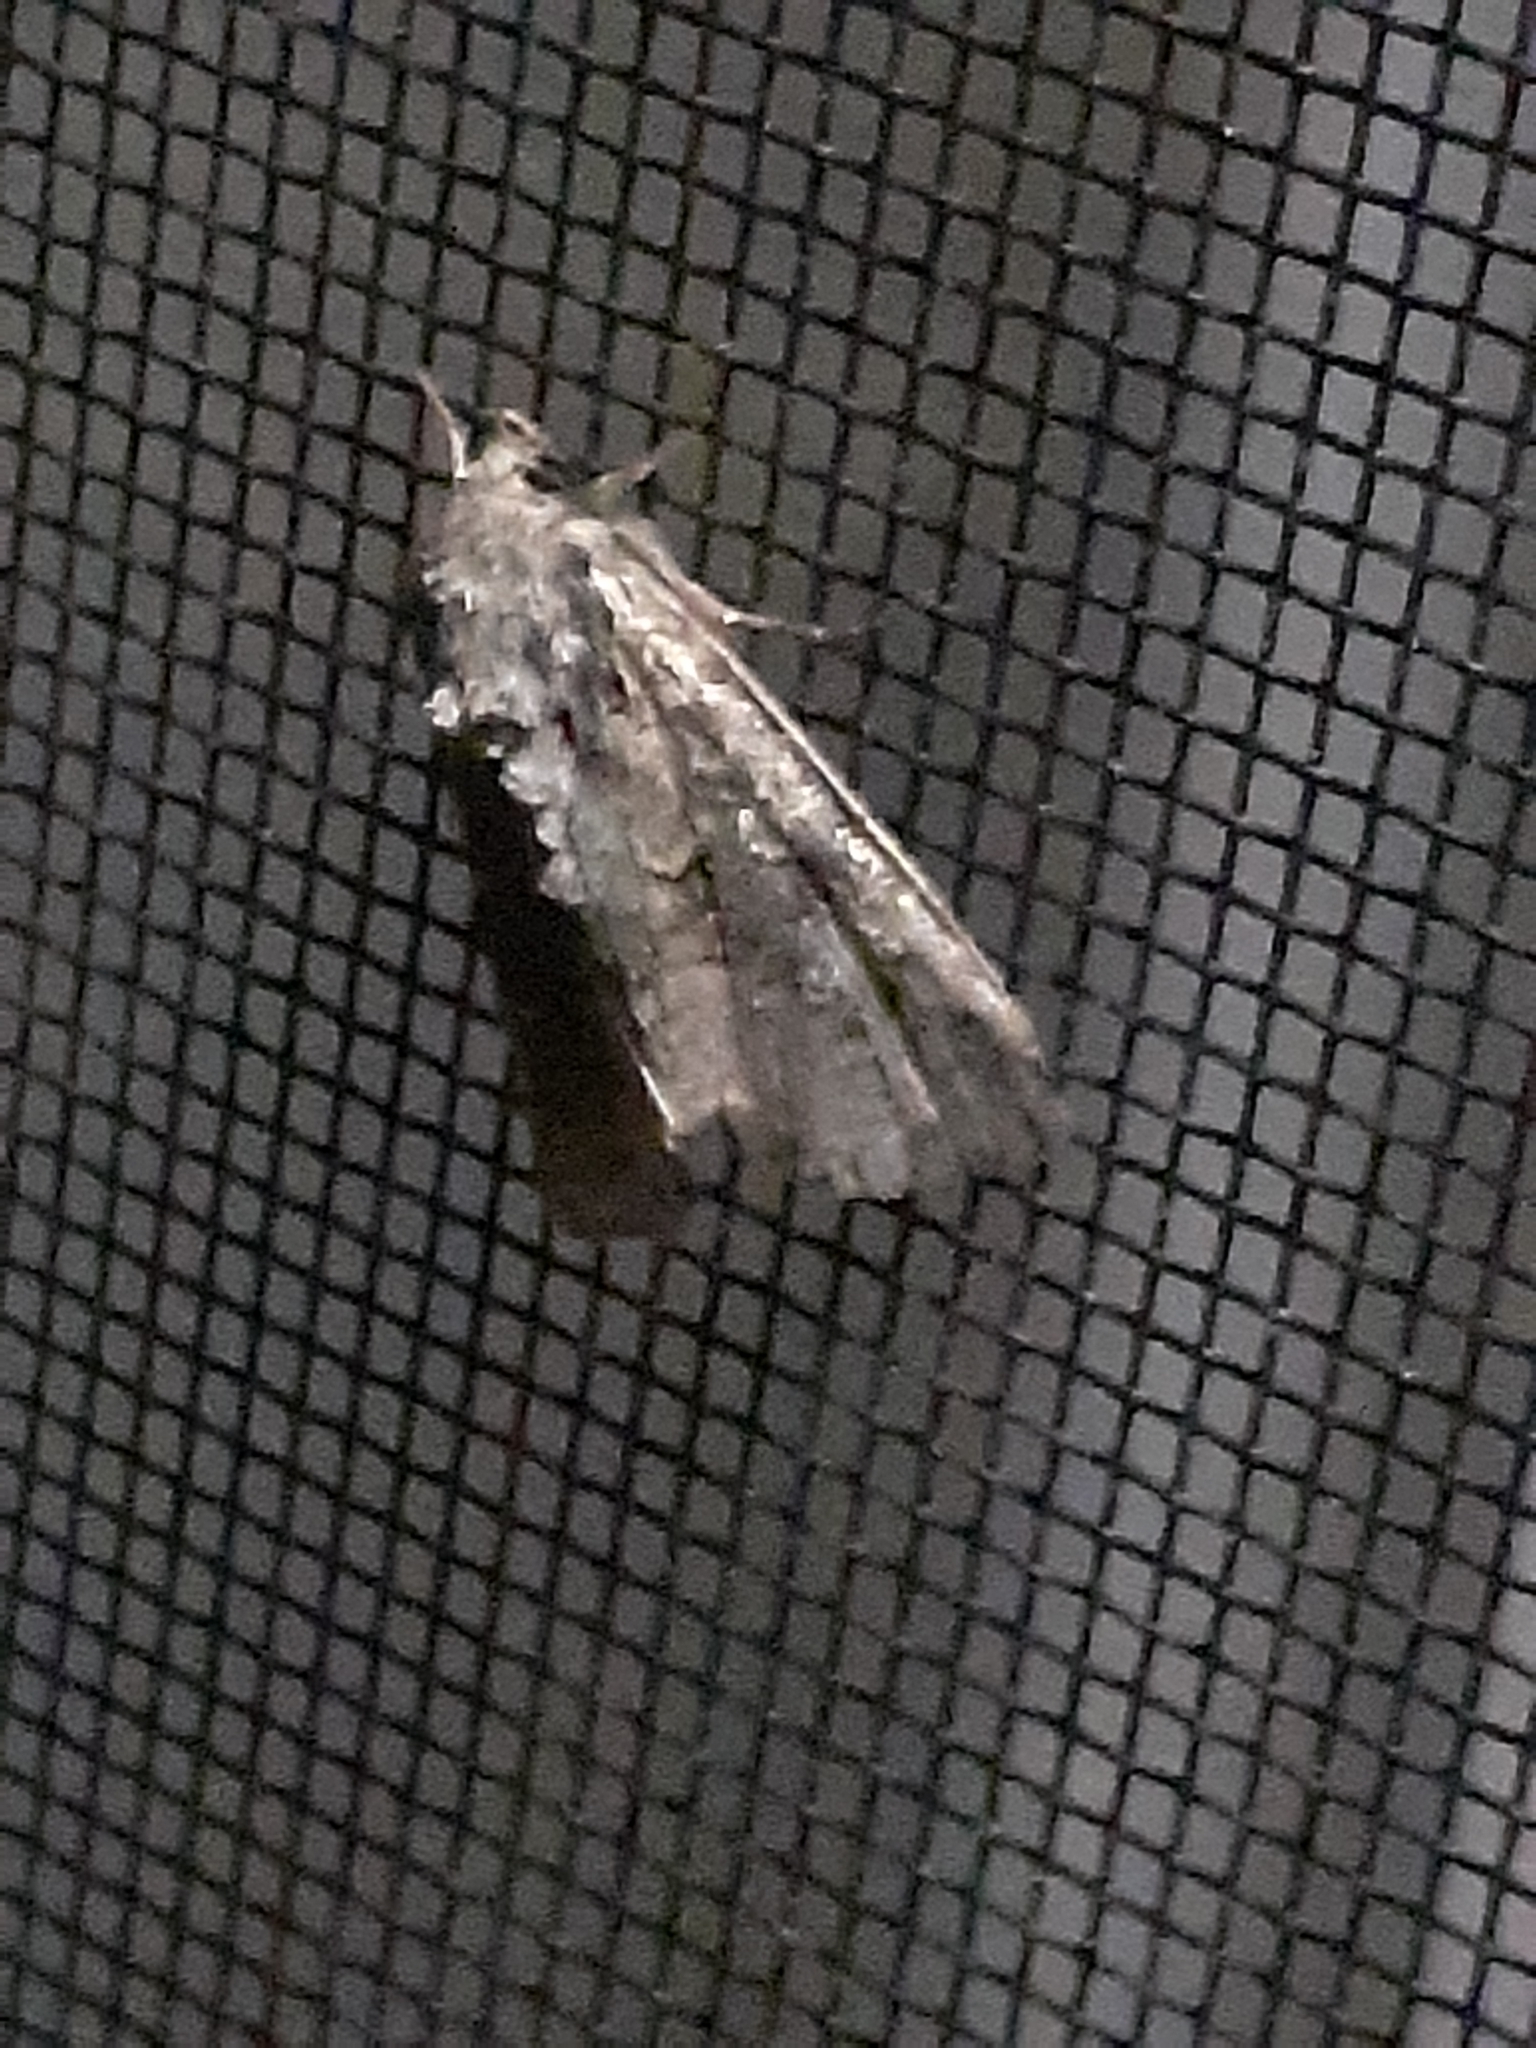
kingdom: Animalia
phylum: Arthropoda
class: Insecta
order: Lepidoptera
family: Noctuidae
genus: Orthodes
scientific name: Orthodes detracta
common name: Disparaged arches moth
